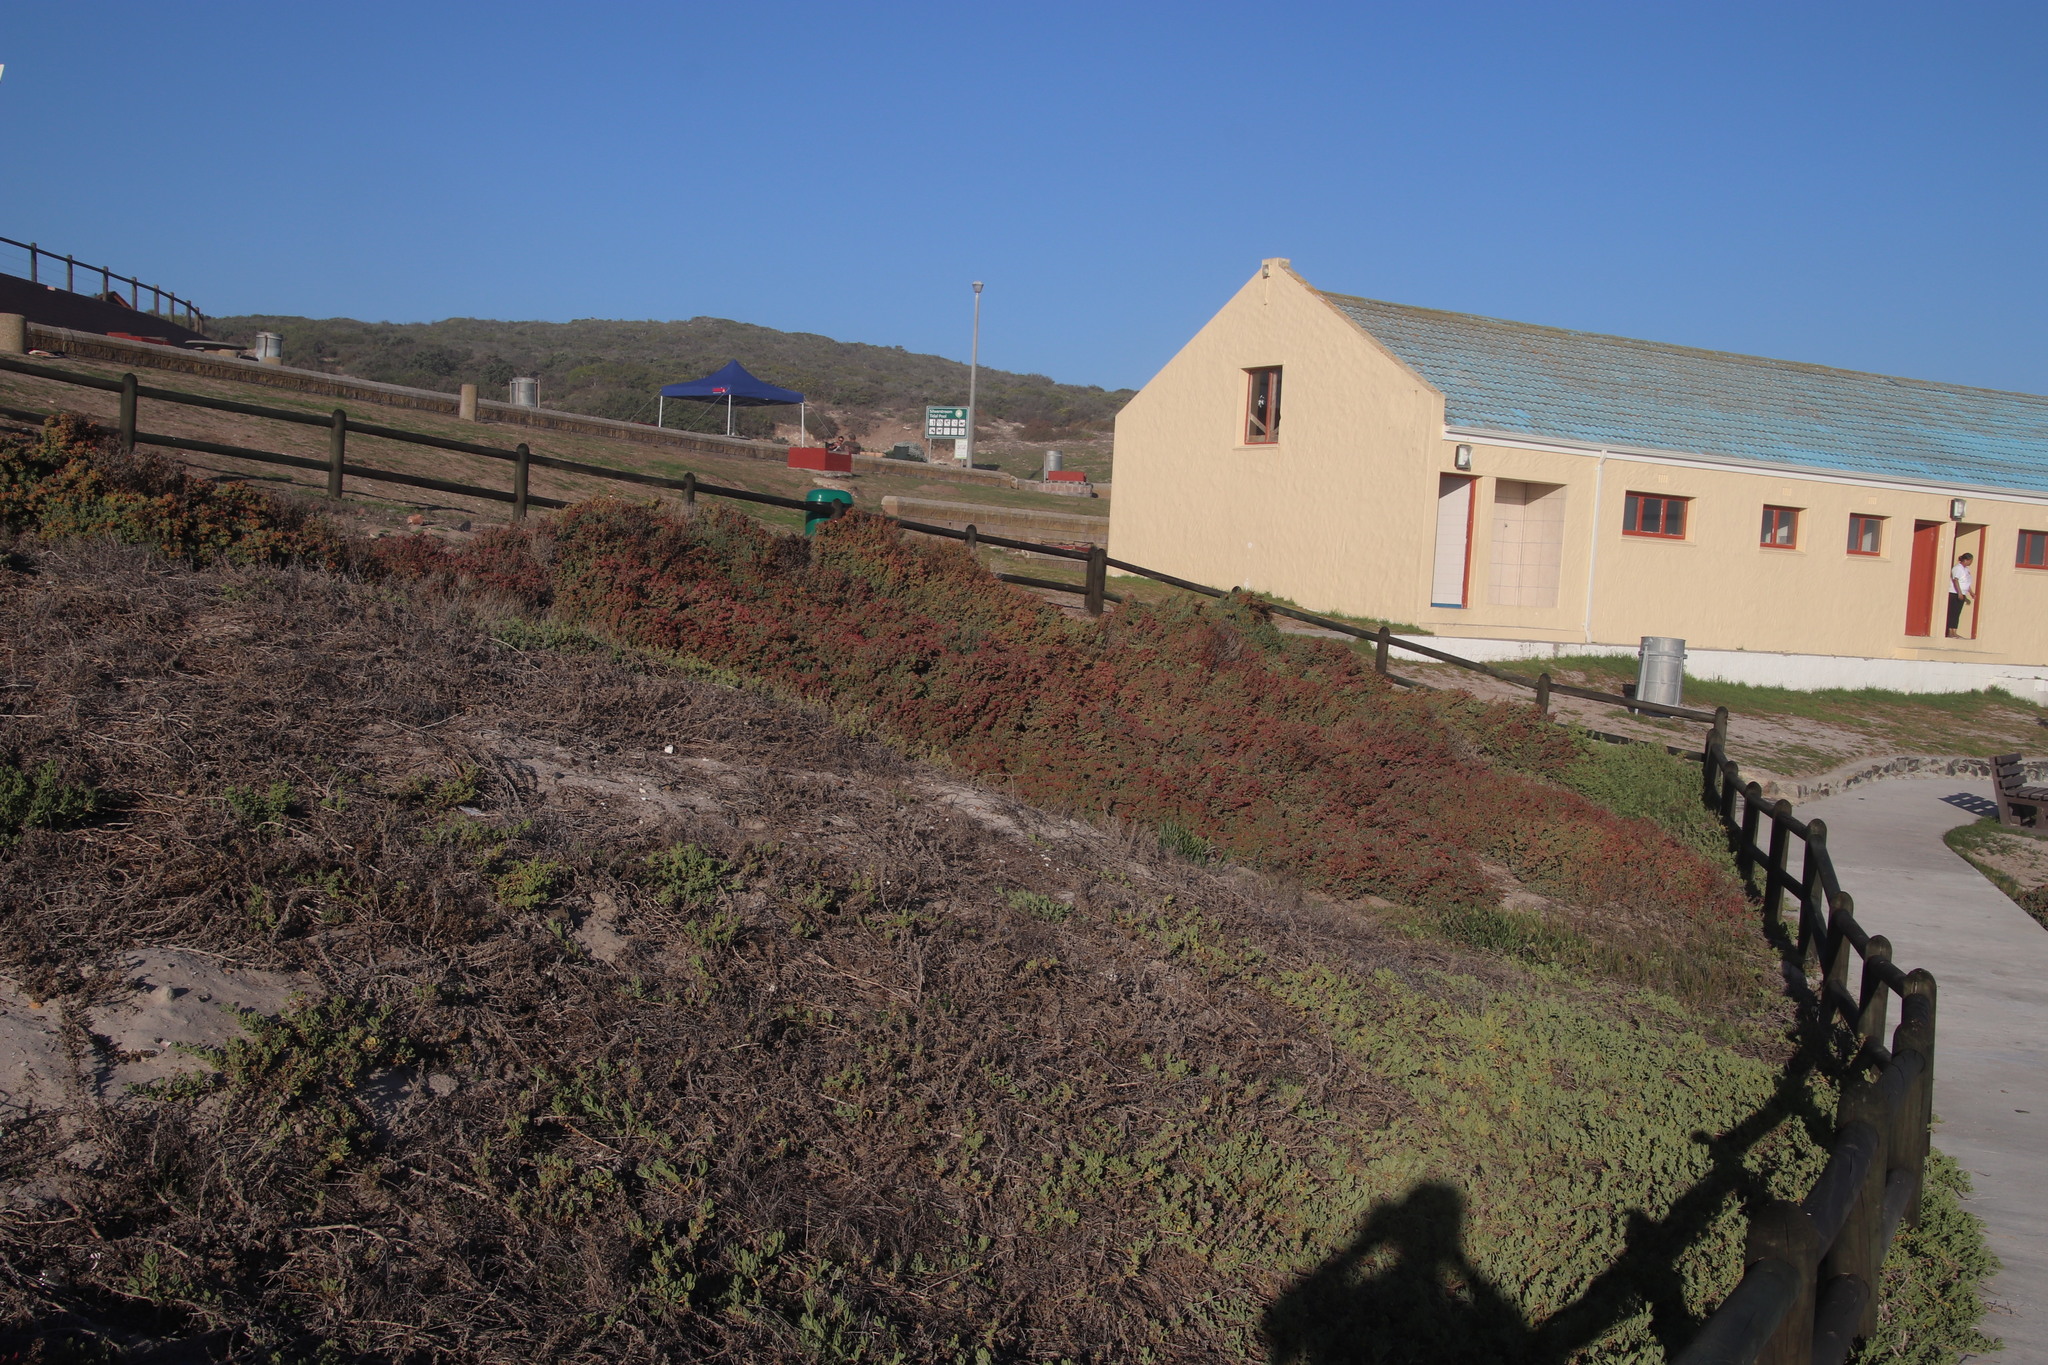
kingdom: Plantae
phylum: Tracheophyta
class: Magnoliopsida
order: Caryophyllales
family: Amaranthaceae
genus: Exomis
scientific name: Exomis microphylla
